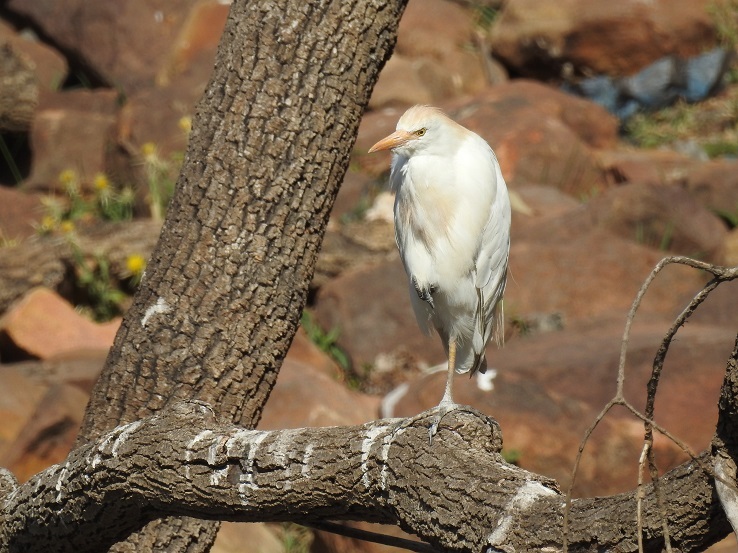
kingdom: Animalia
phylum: Chordata
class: Aves
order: Pelecaniformes
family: Ardeidae
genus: Bubulcus
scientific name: Bubulcus ibis
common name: Cattle egret
